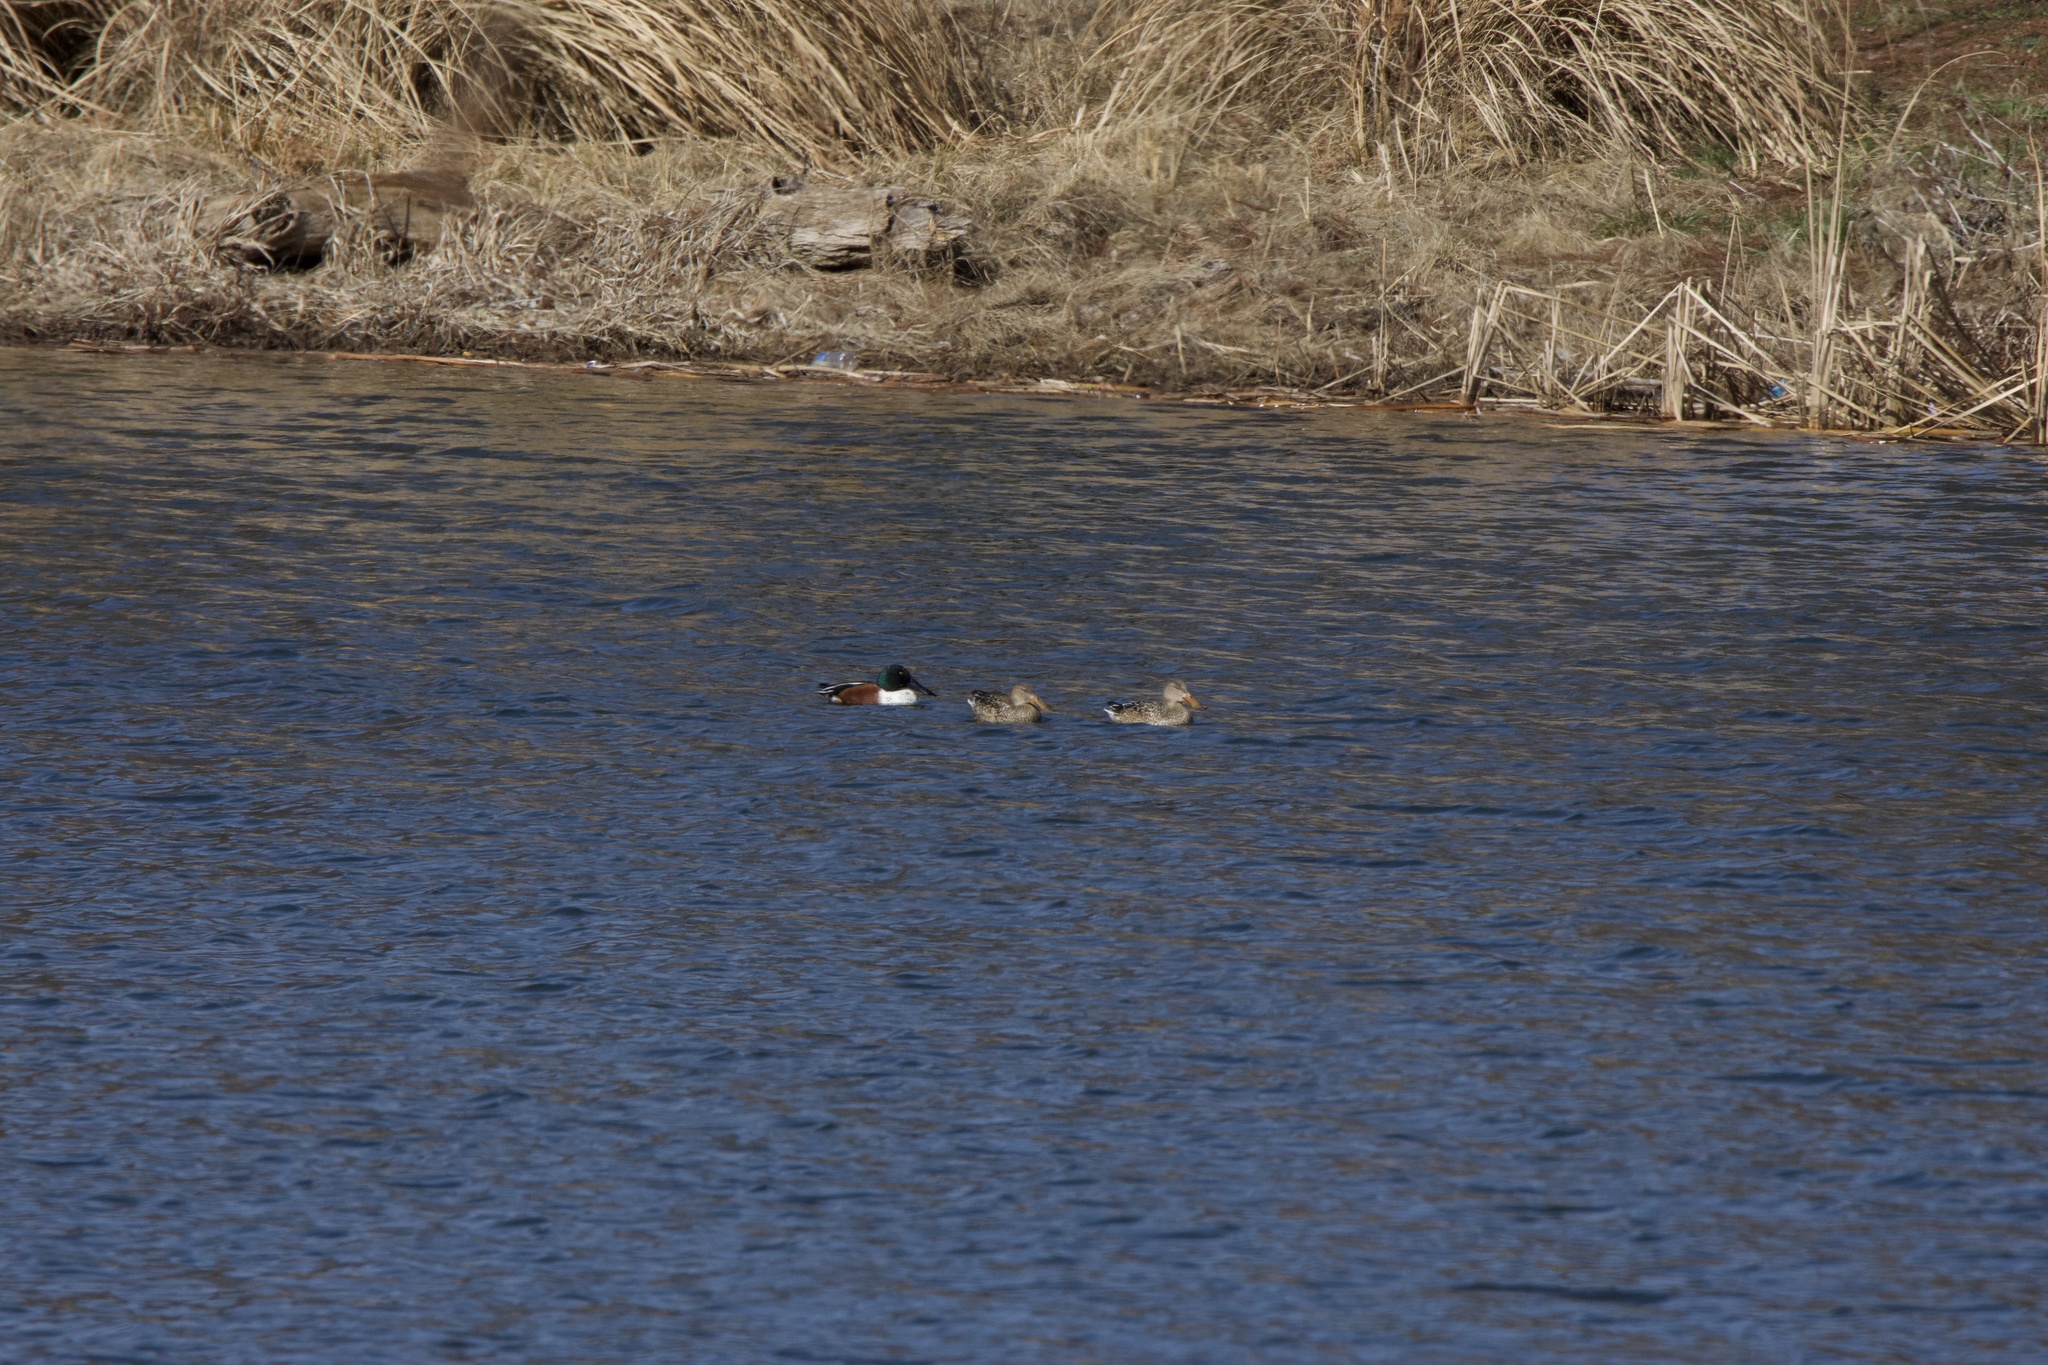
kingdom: Animalia
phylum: Chordata
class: Aves
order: Anseriformes
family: Anatidae
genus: Spatula
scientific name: Spatula clypeata
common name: Northern shoveler
